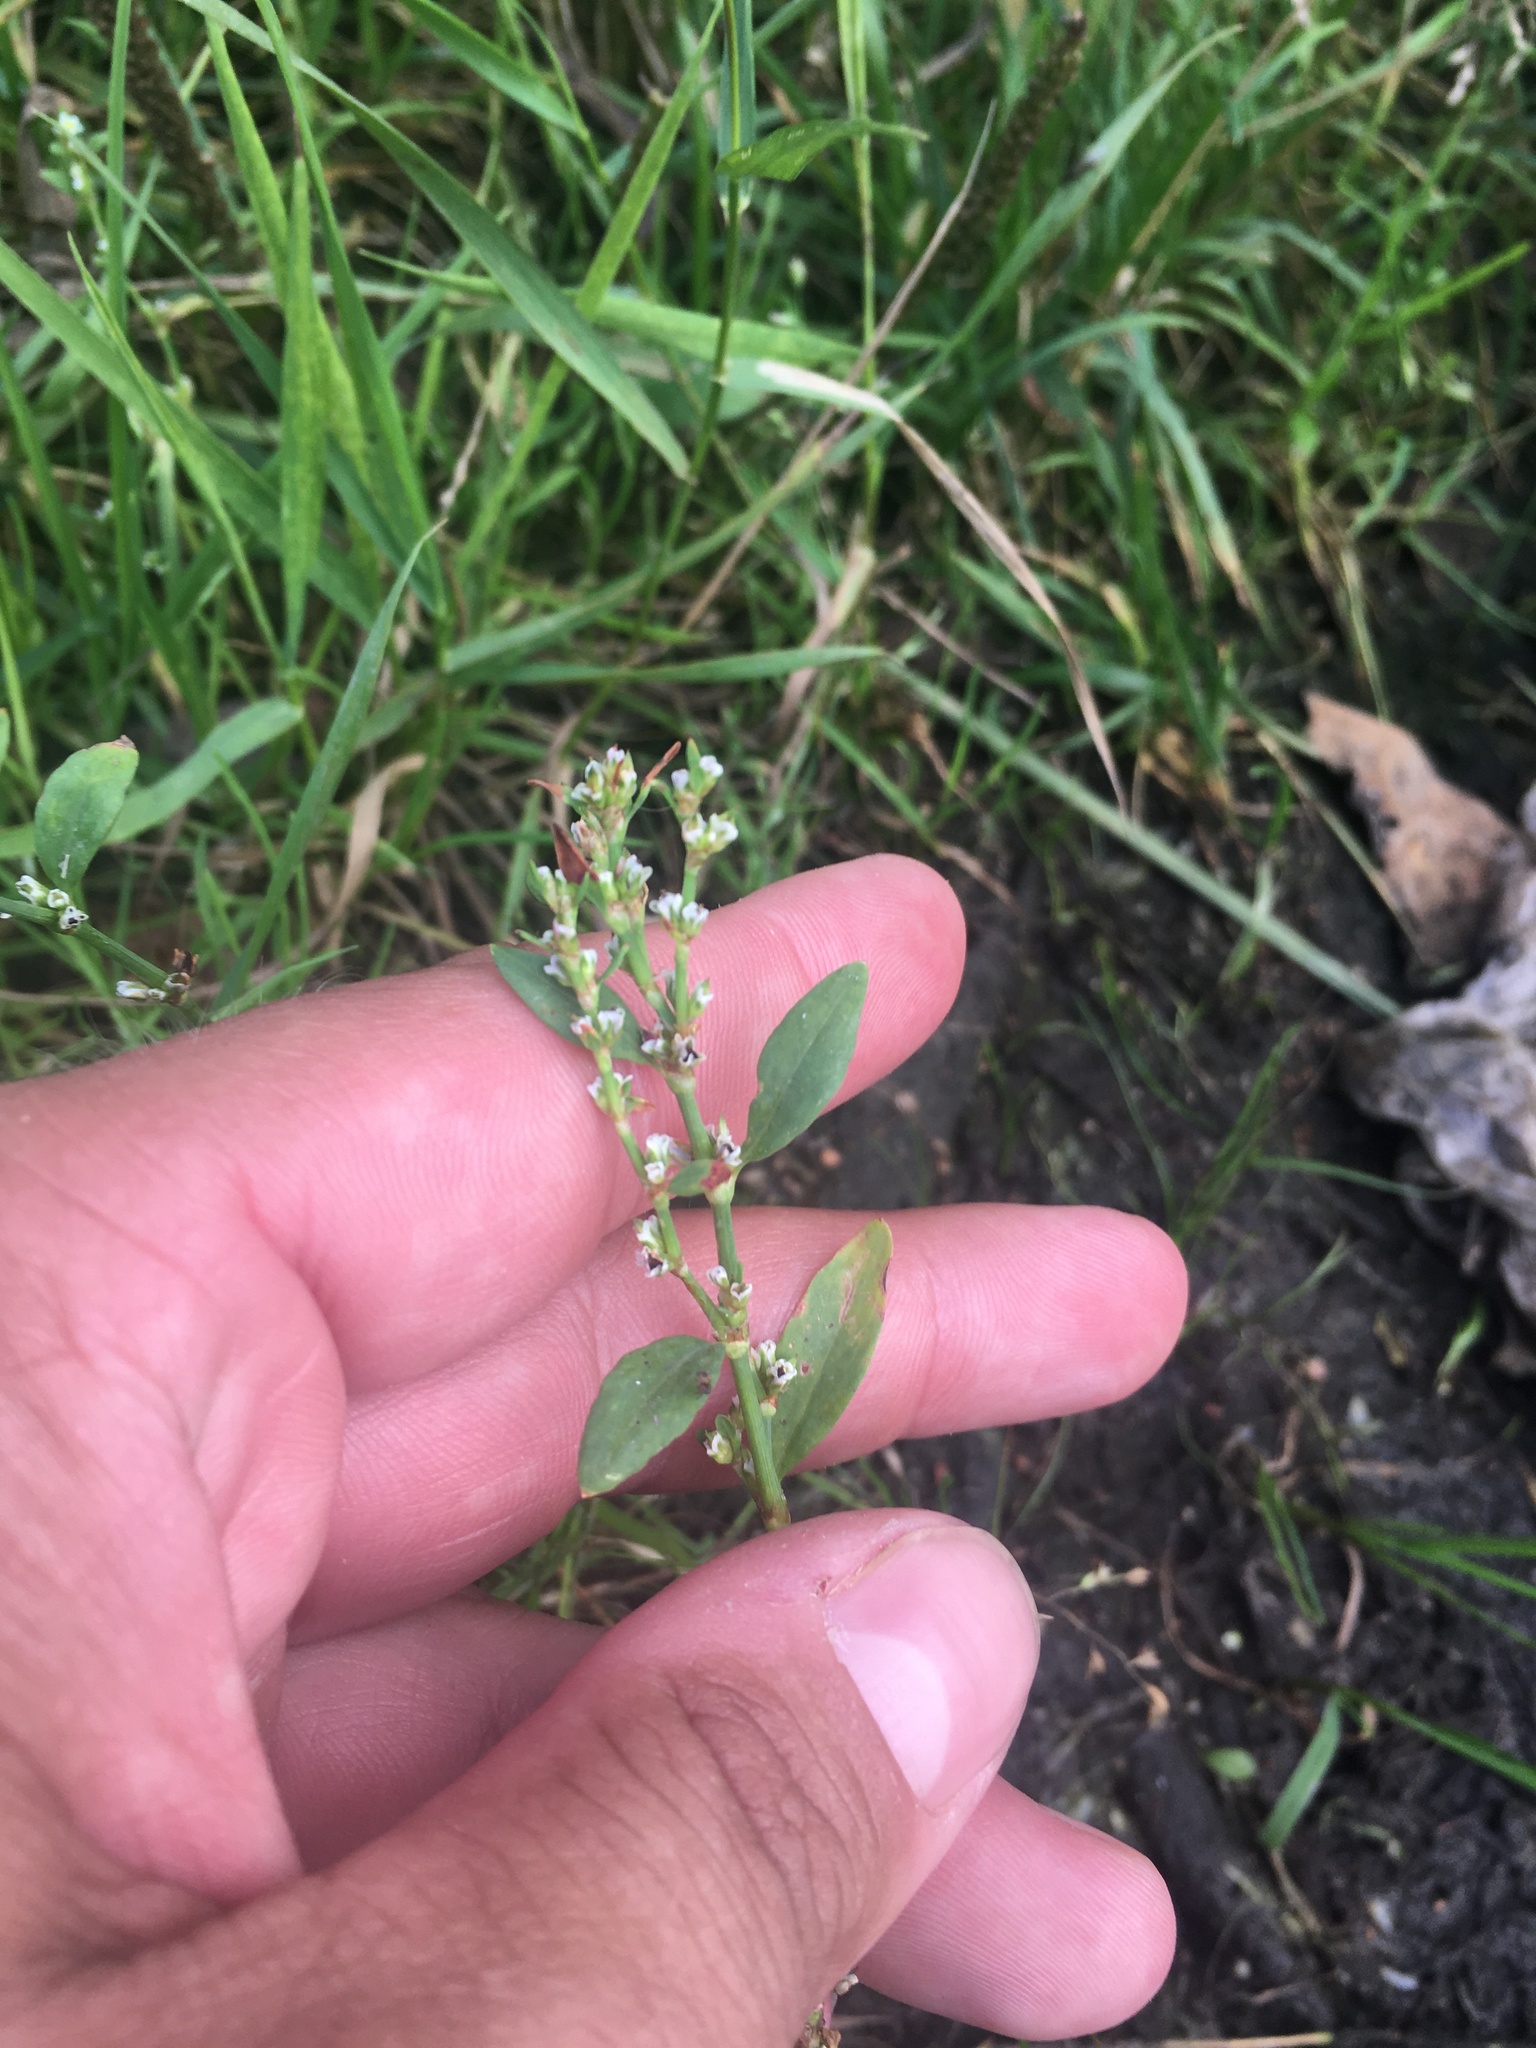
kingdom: Plantae
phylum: Tracheophyta
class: Magnoliopsida
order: Caryophyllales
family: Polygonaceae
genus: Polygonum
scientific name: Polygonum
